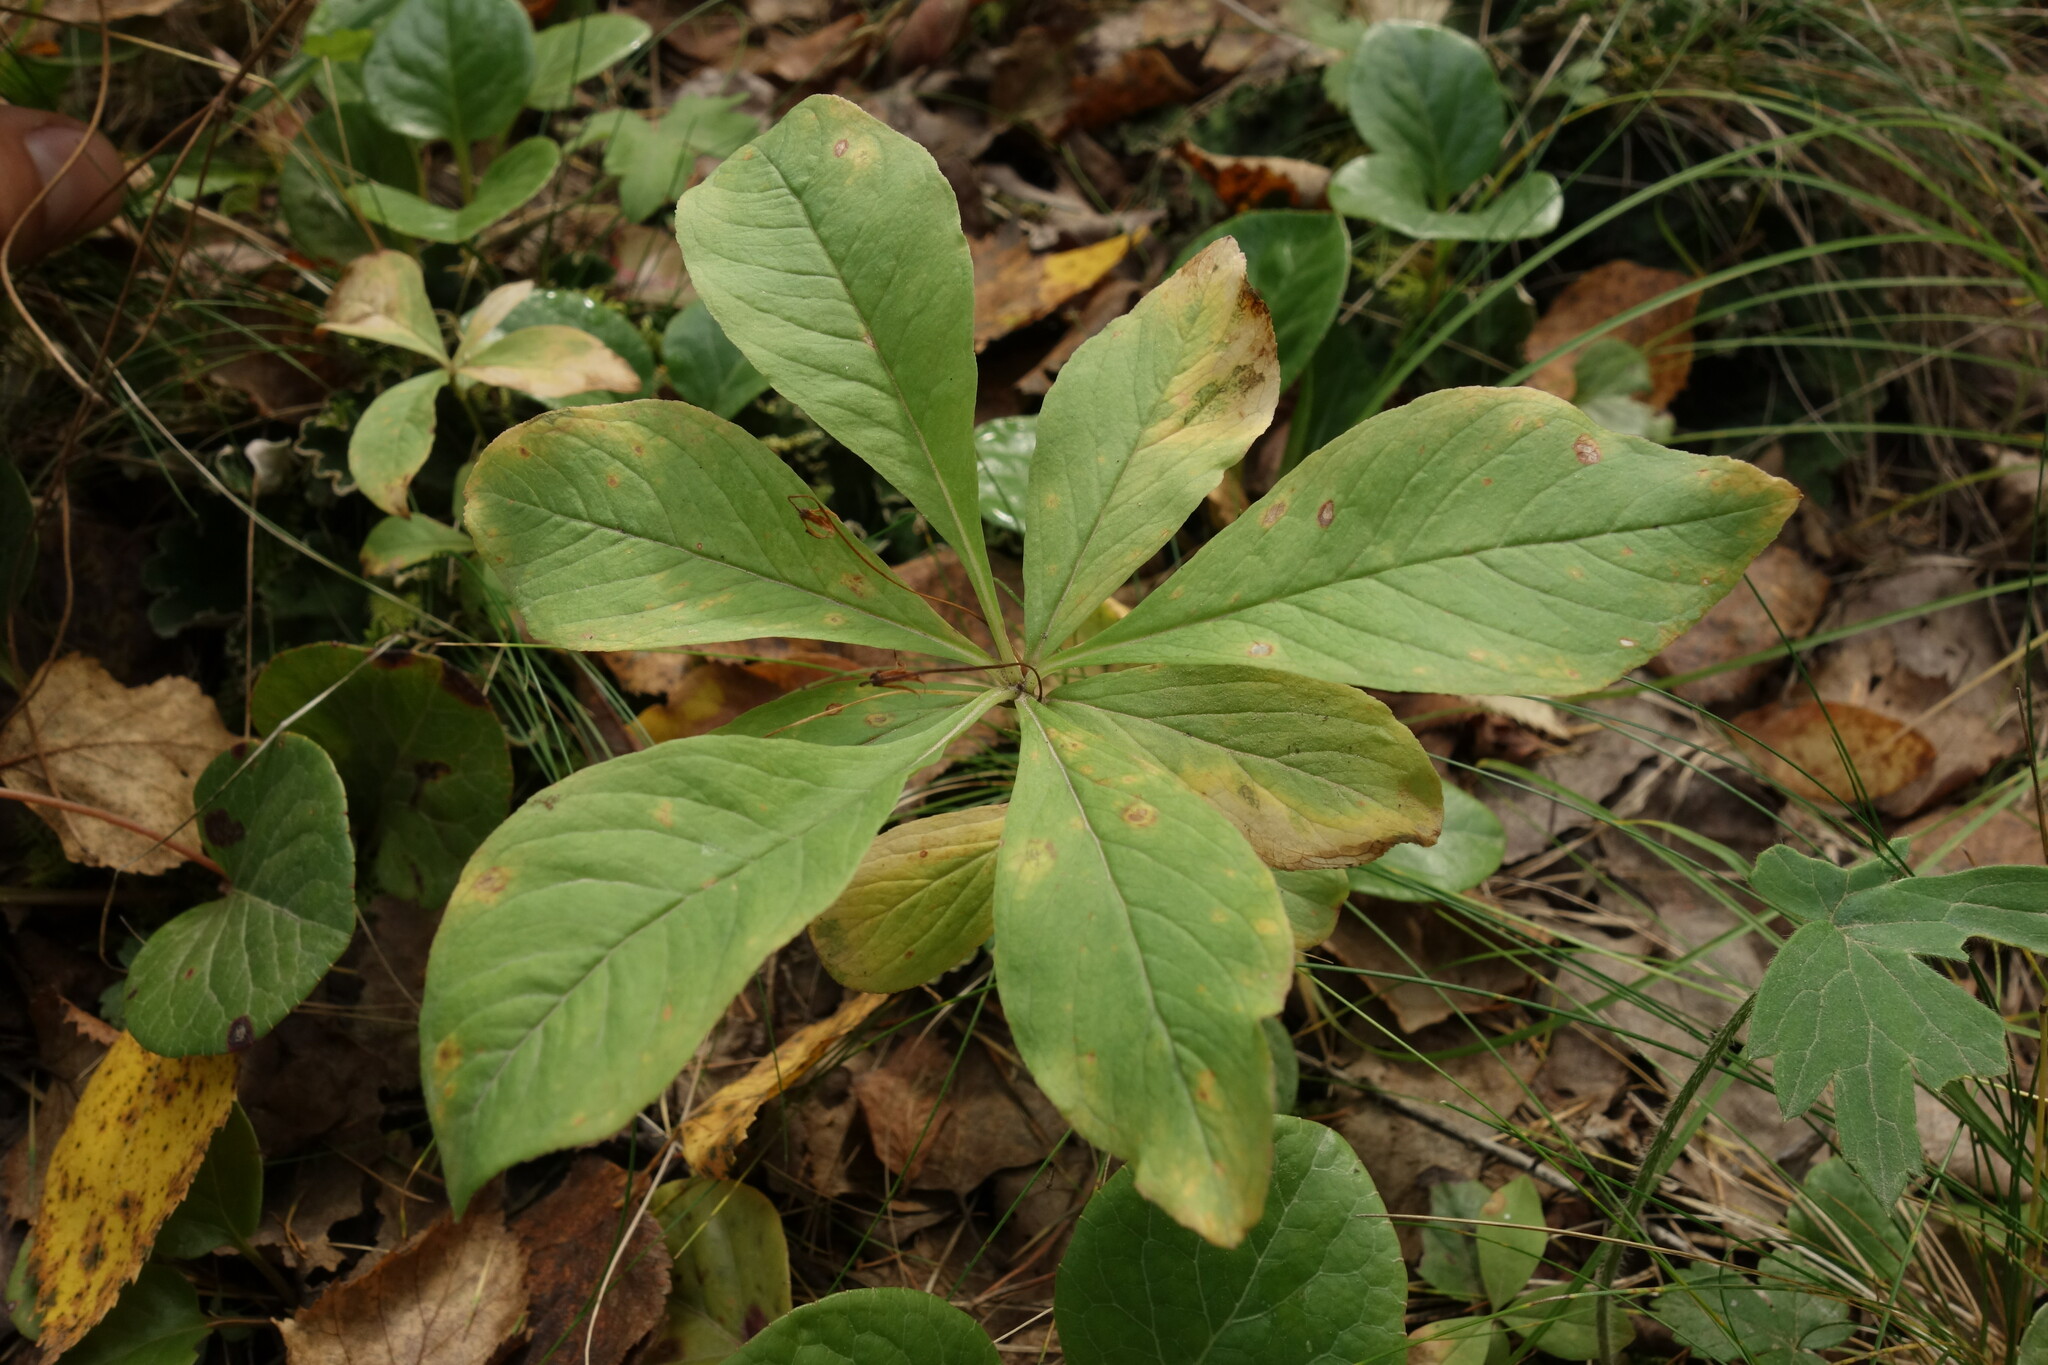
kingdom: Plantae
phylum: Tracheophyta
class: Magnoliopsida
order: Ericales
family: Primulaceae
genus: Lysimachia
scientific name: Lysimachia europaea
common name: Arctic starflower
